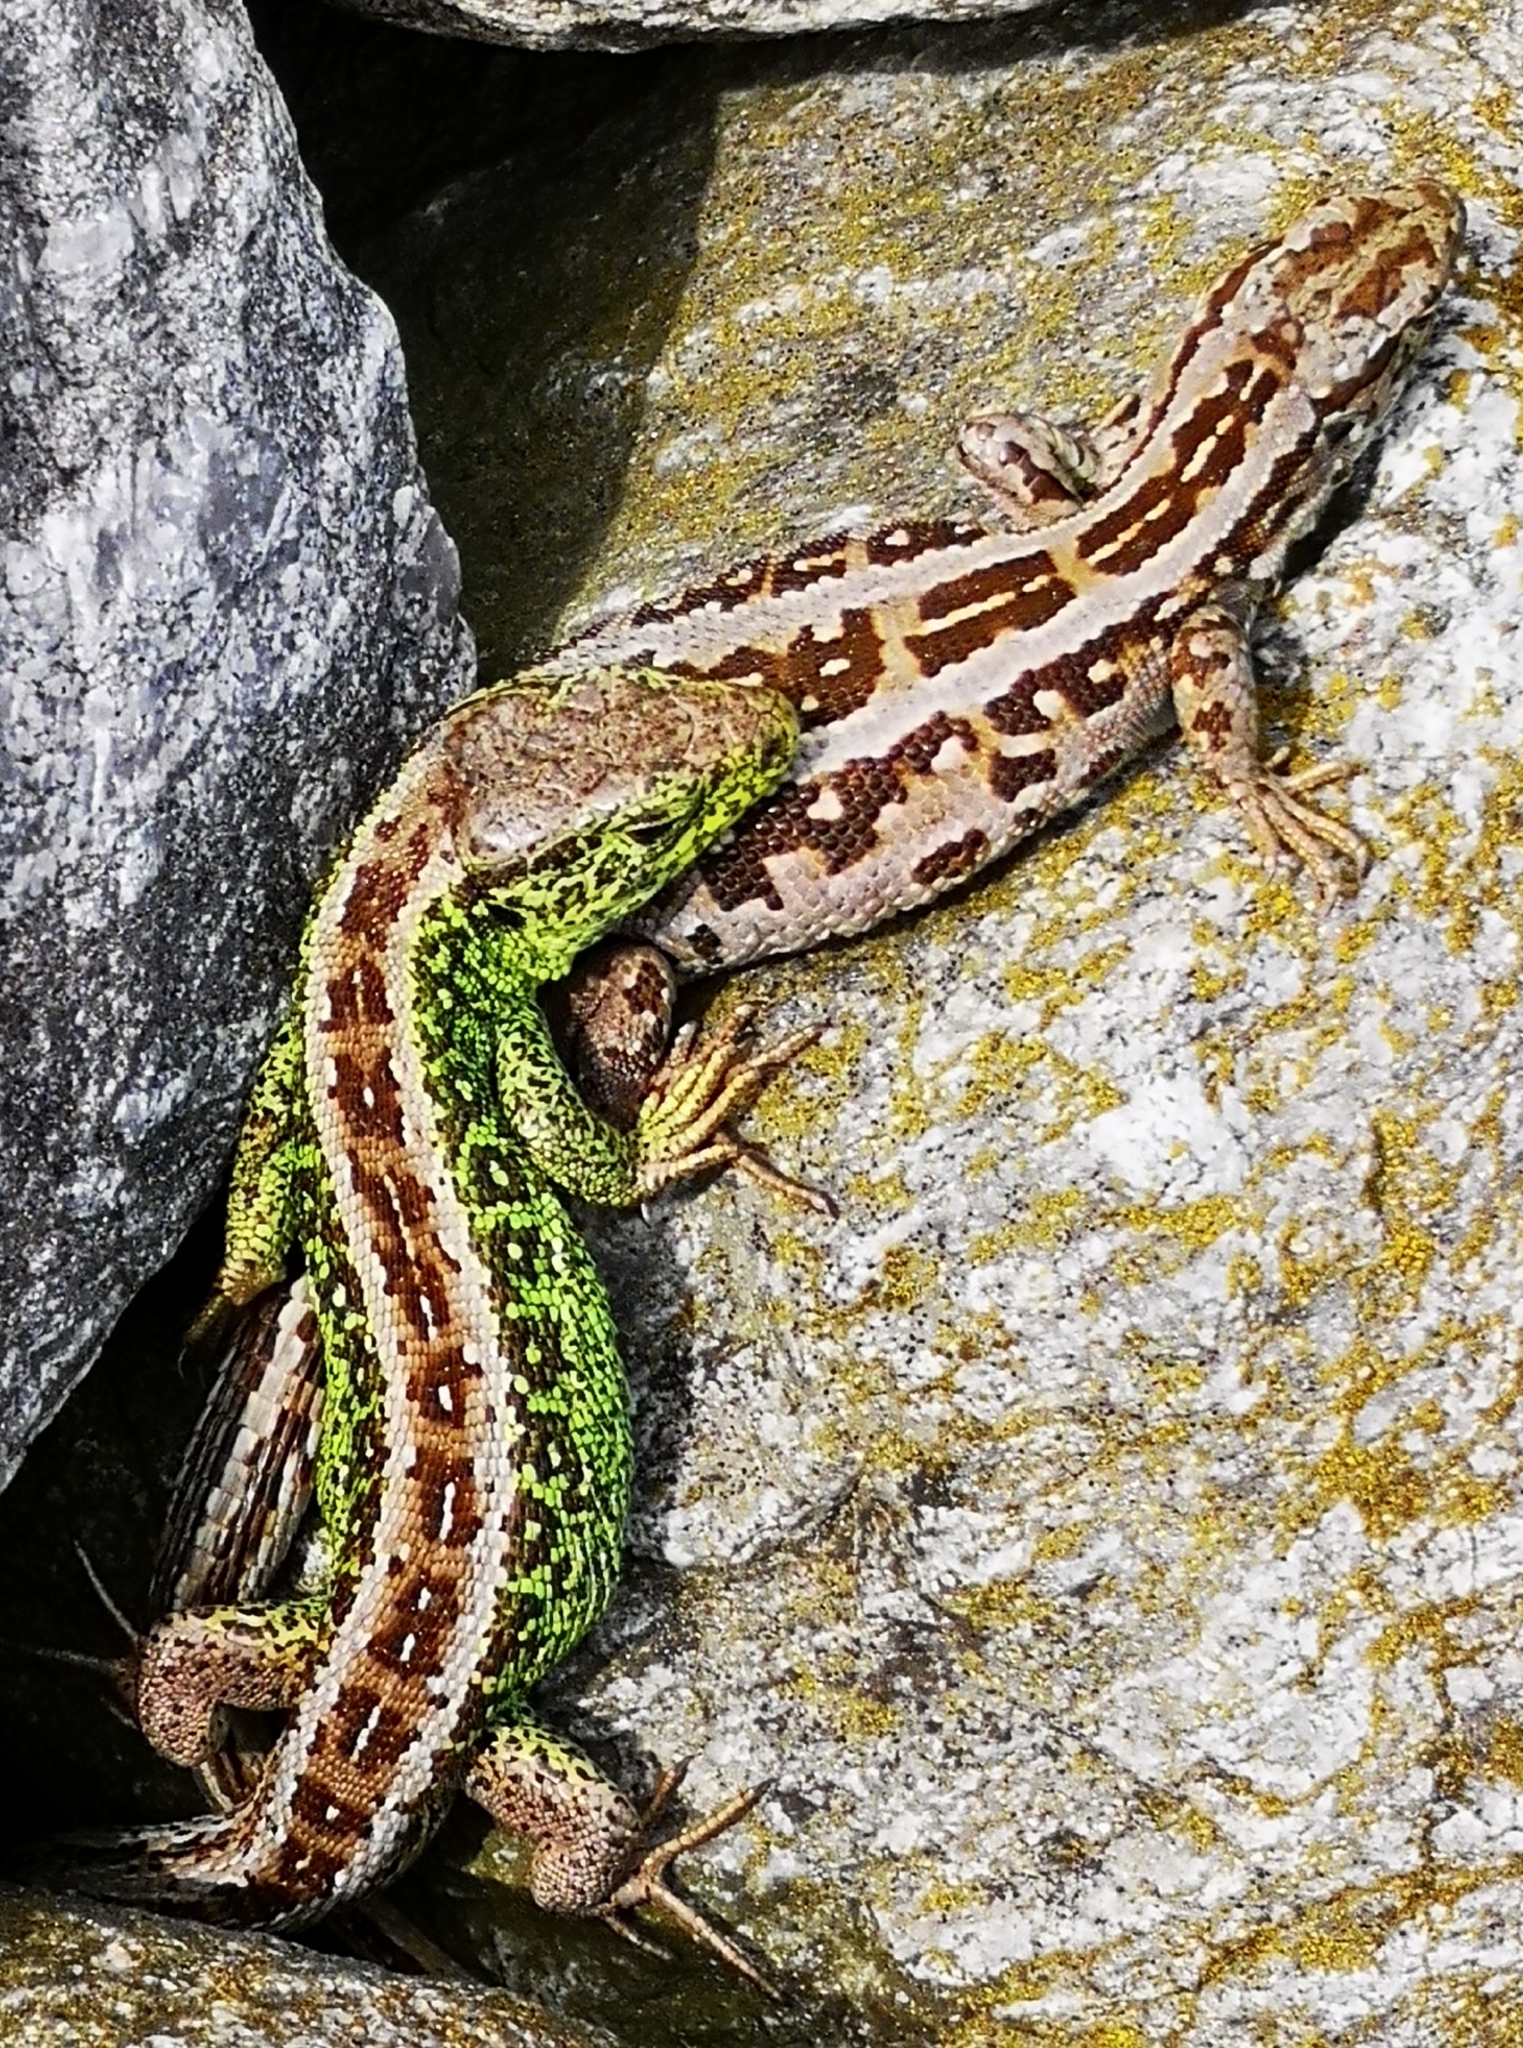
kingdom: Animalia
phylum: Chordata
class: Squamata
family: Lacertidae
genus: Lacerta
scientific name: Lacerta agilis
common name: Sand lizard
